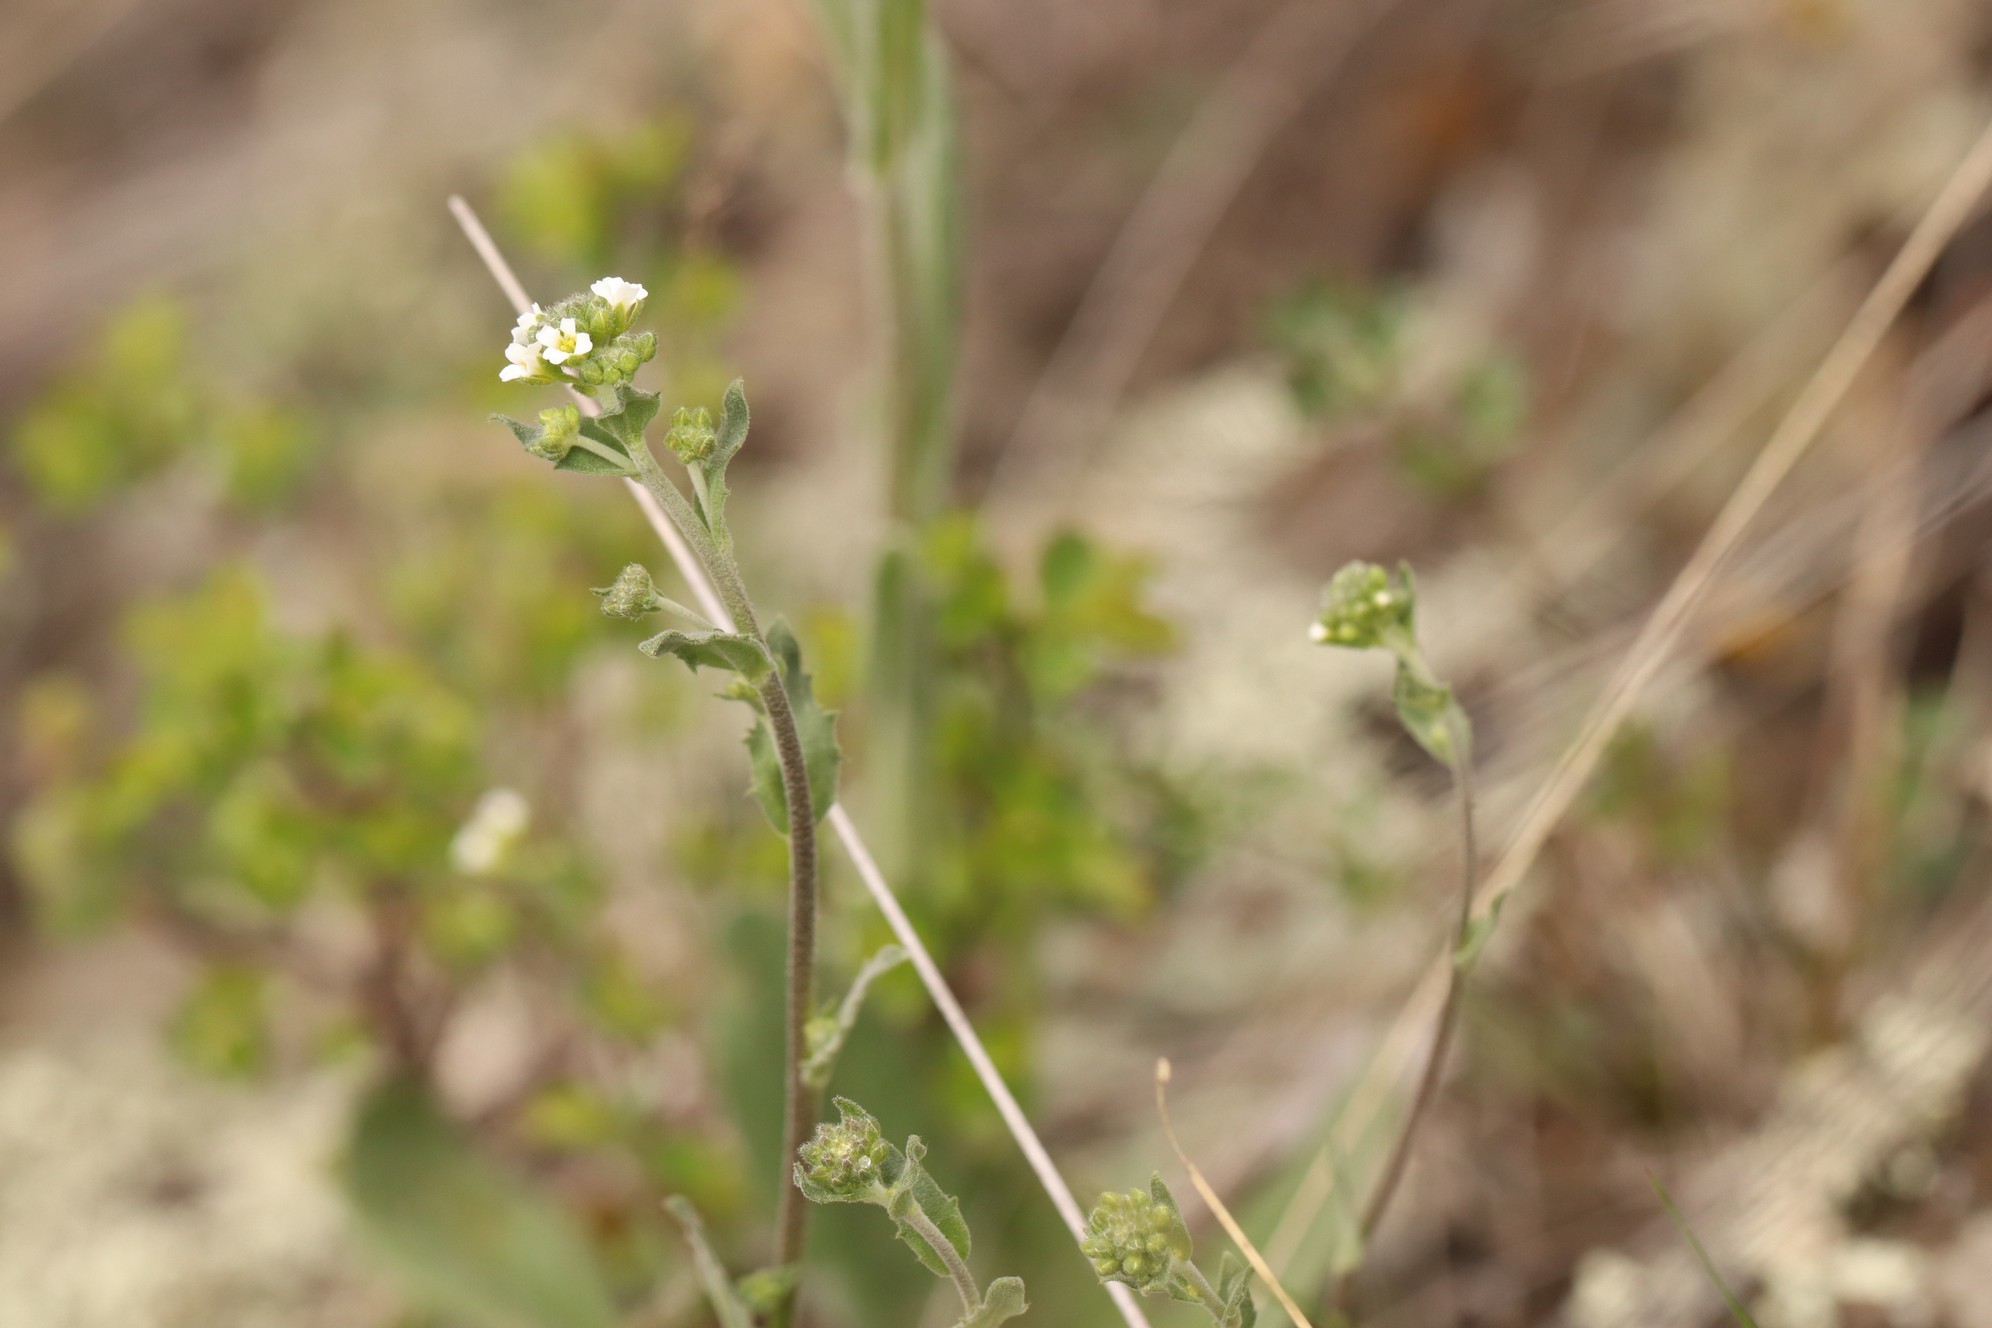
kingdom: Plantae
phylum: Tracheophyta
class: Magnoliopsida
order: Brassicales
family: Brassicaceae
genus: Draba
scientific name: Draba lanceolata
